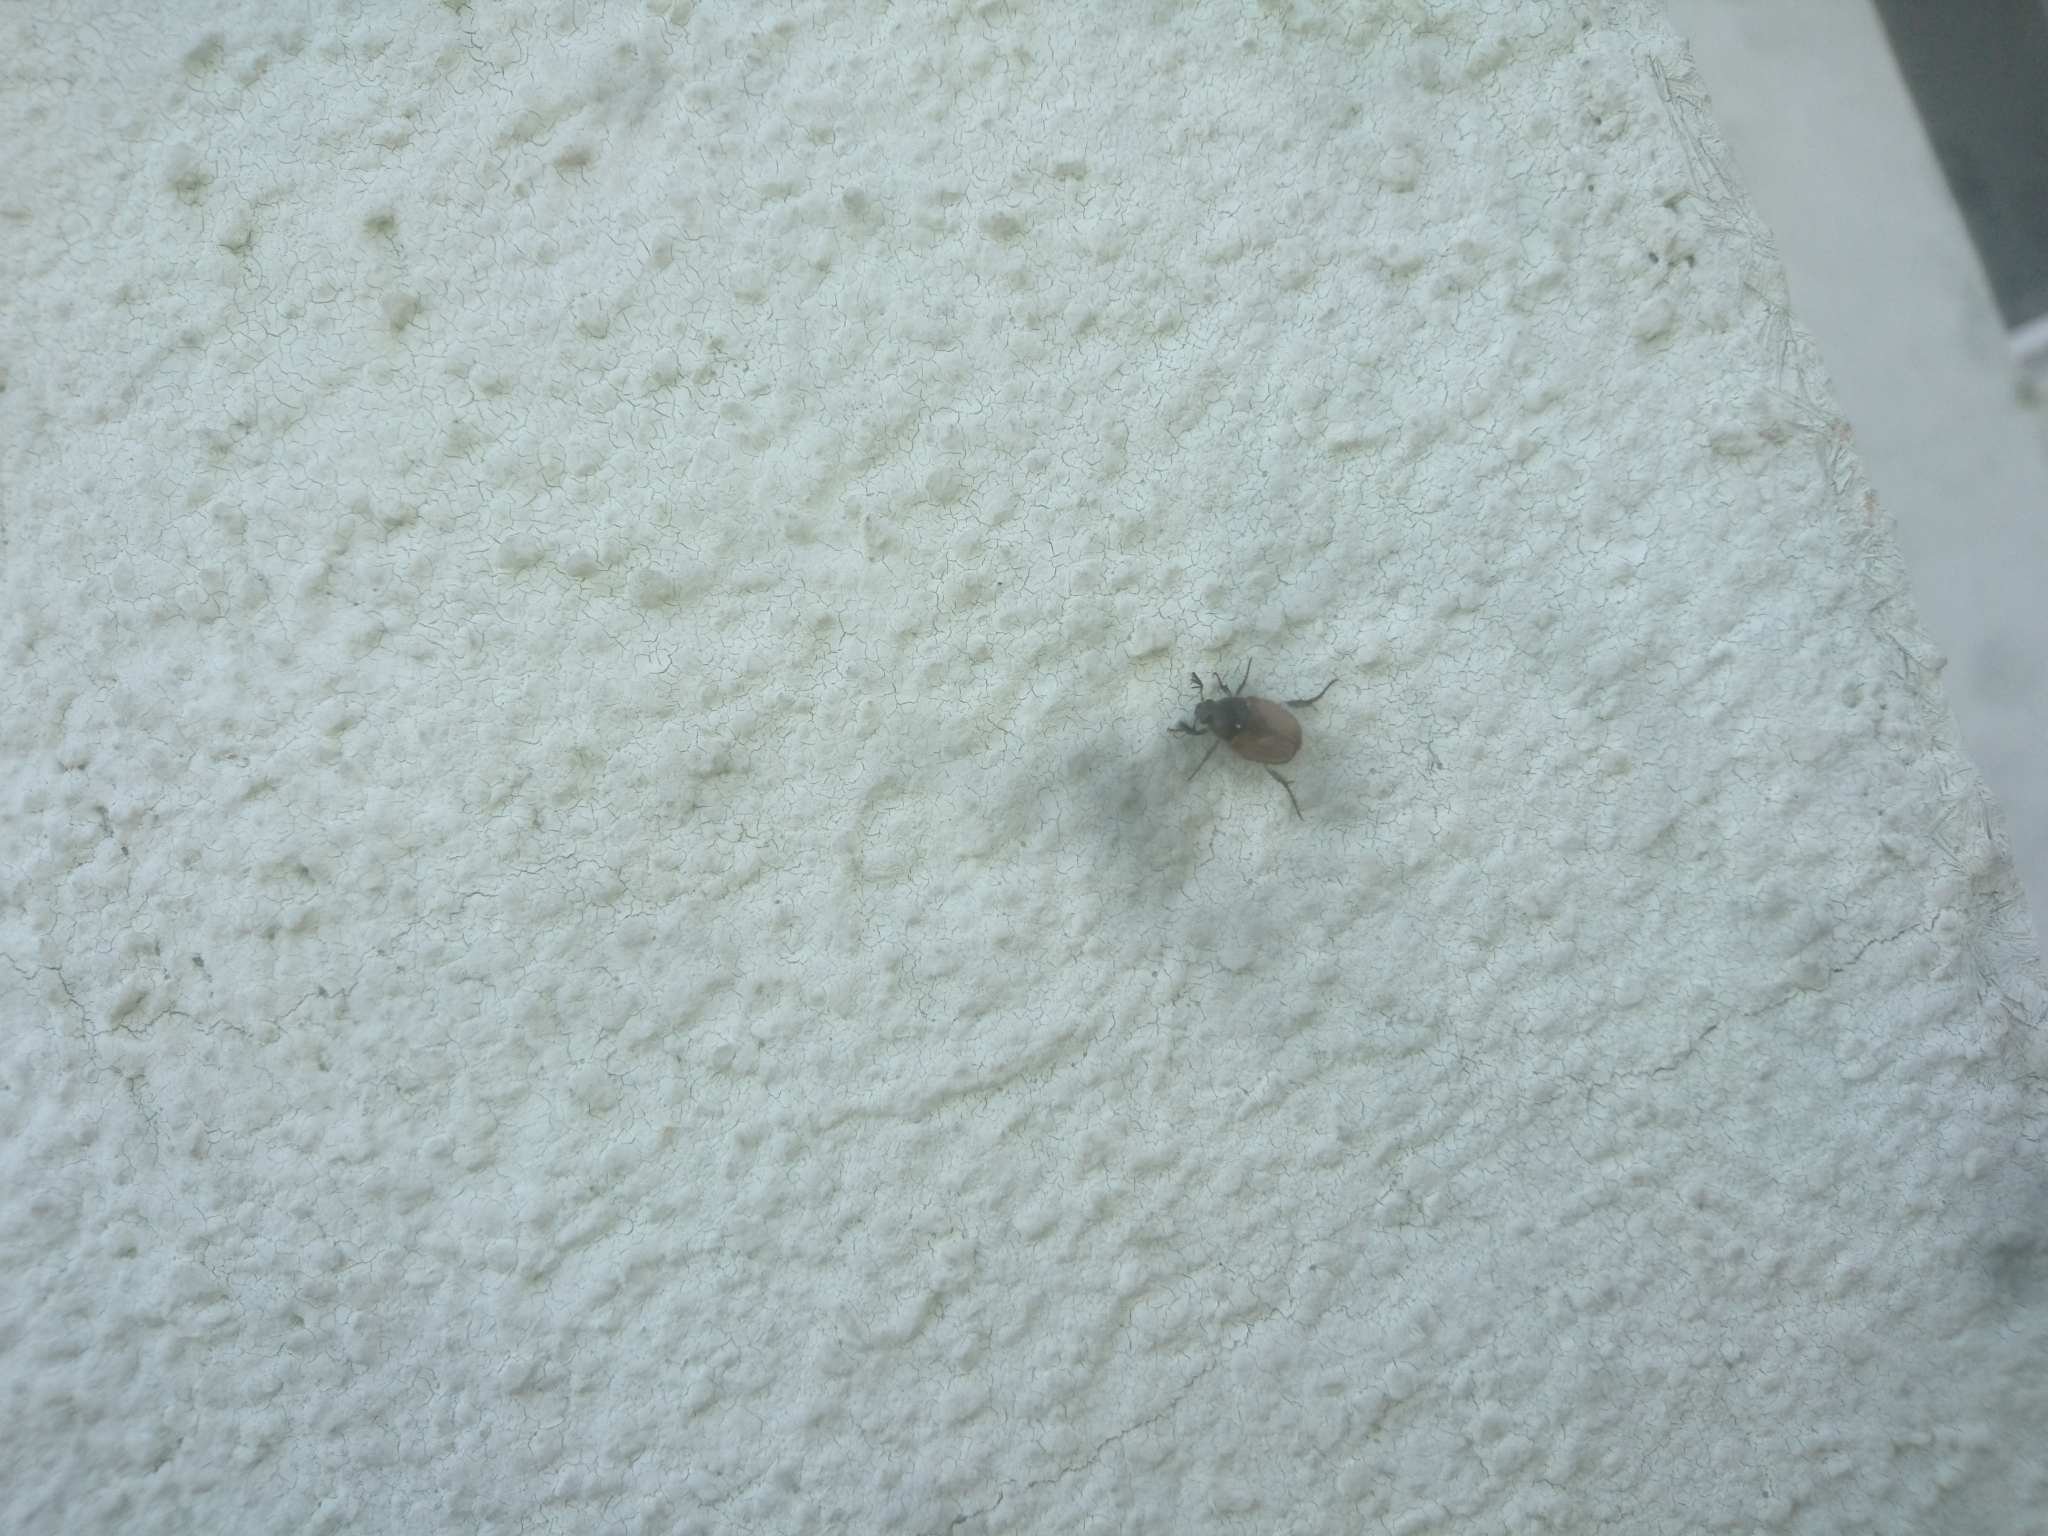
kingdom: Animalia
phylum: Arthropoda
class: Insecta
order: Coleoptera
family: Scarabaeidae
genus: Pharaonus
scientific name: Pharaonus caucasicus
